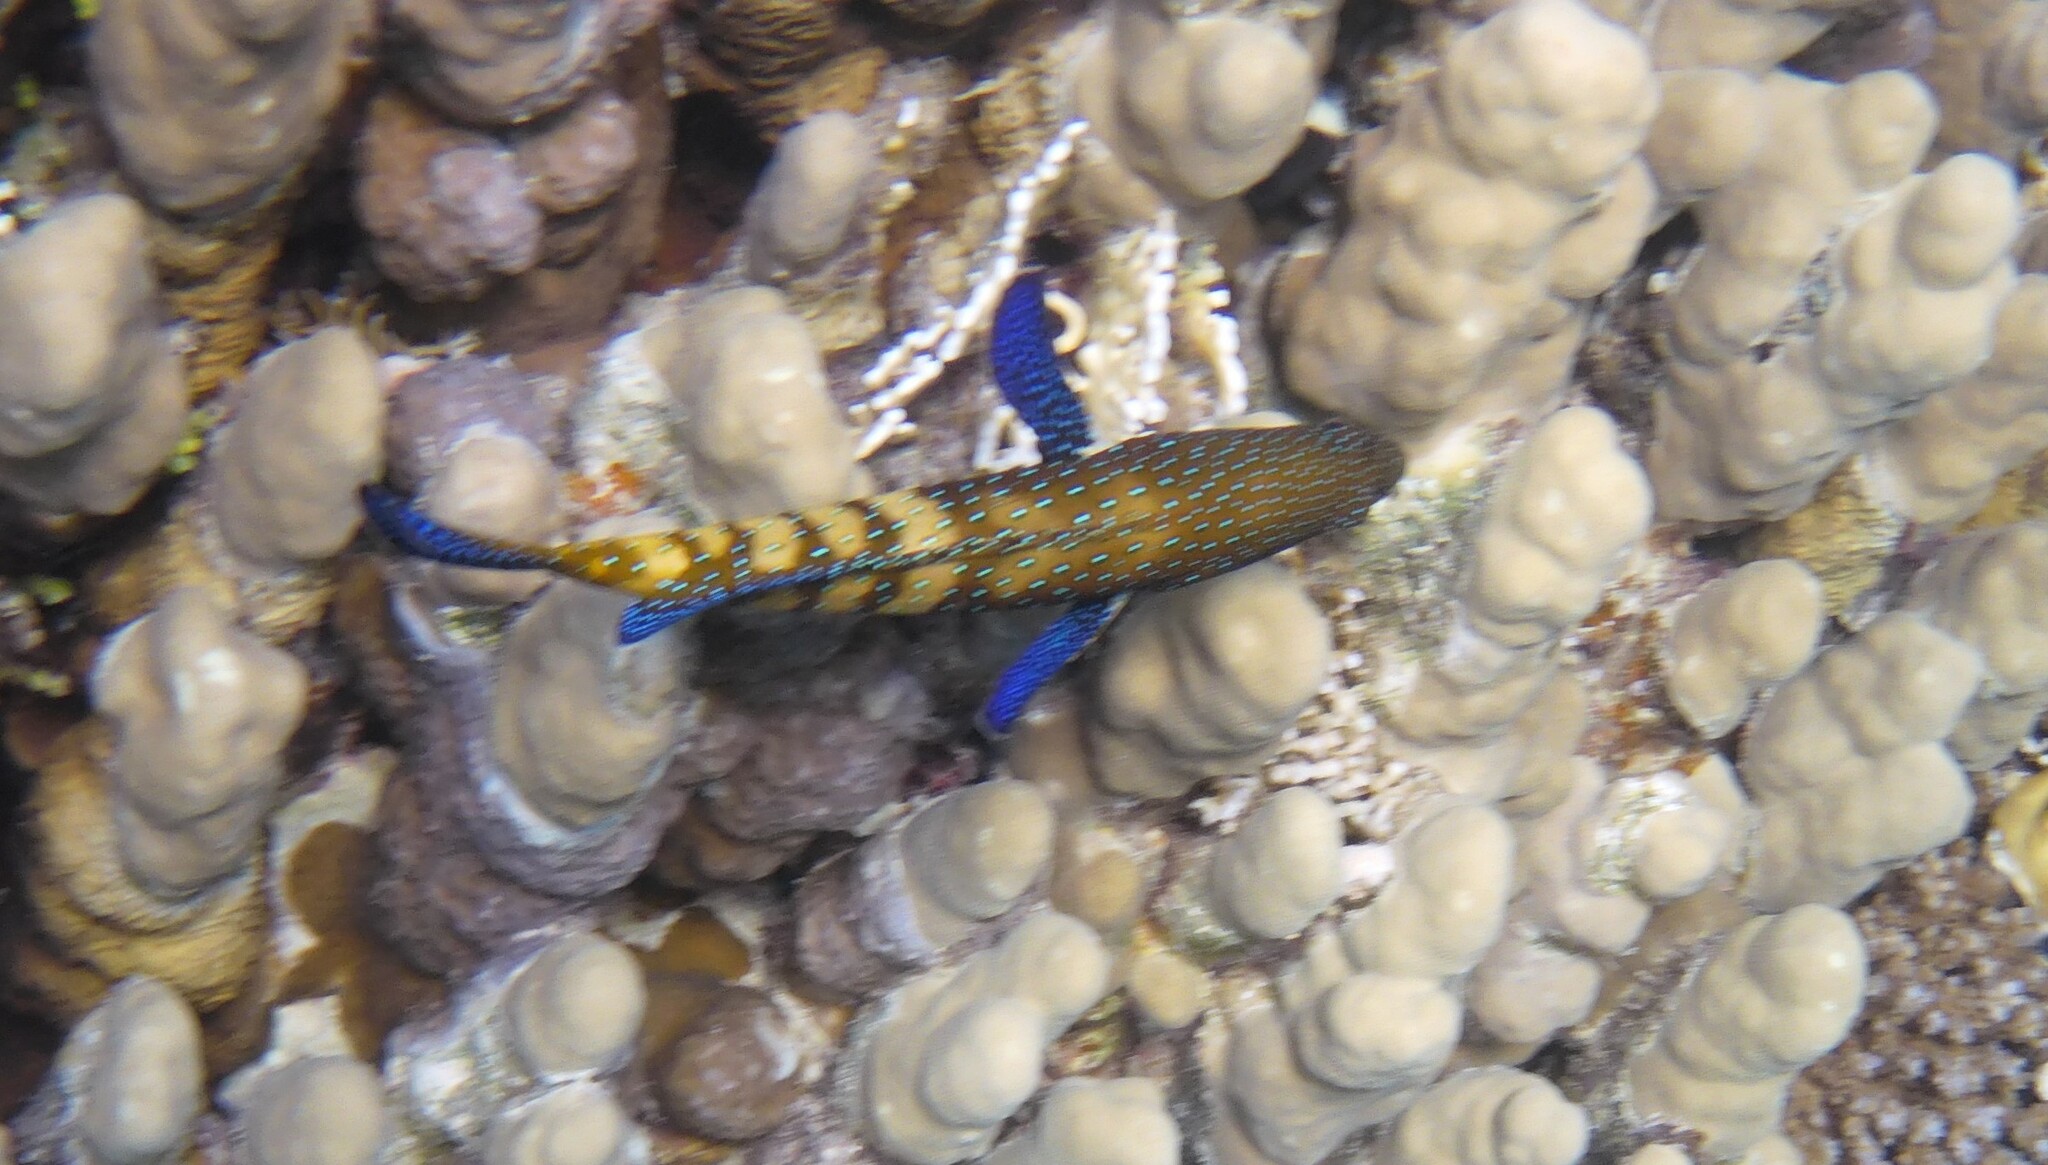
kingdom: Animalia
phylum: Chordata
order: Perciformes
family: Serranidae
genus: Cephalopholis
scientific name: Cephalopholis argus
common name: Peacock grouper
